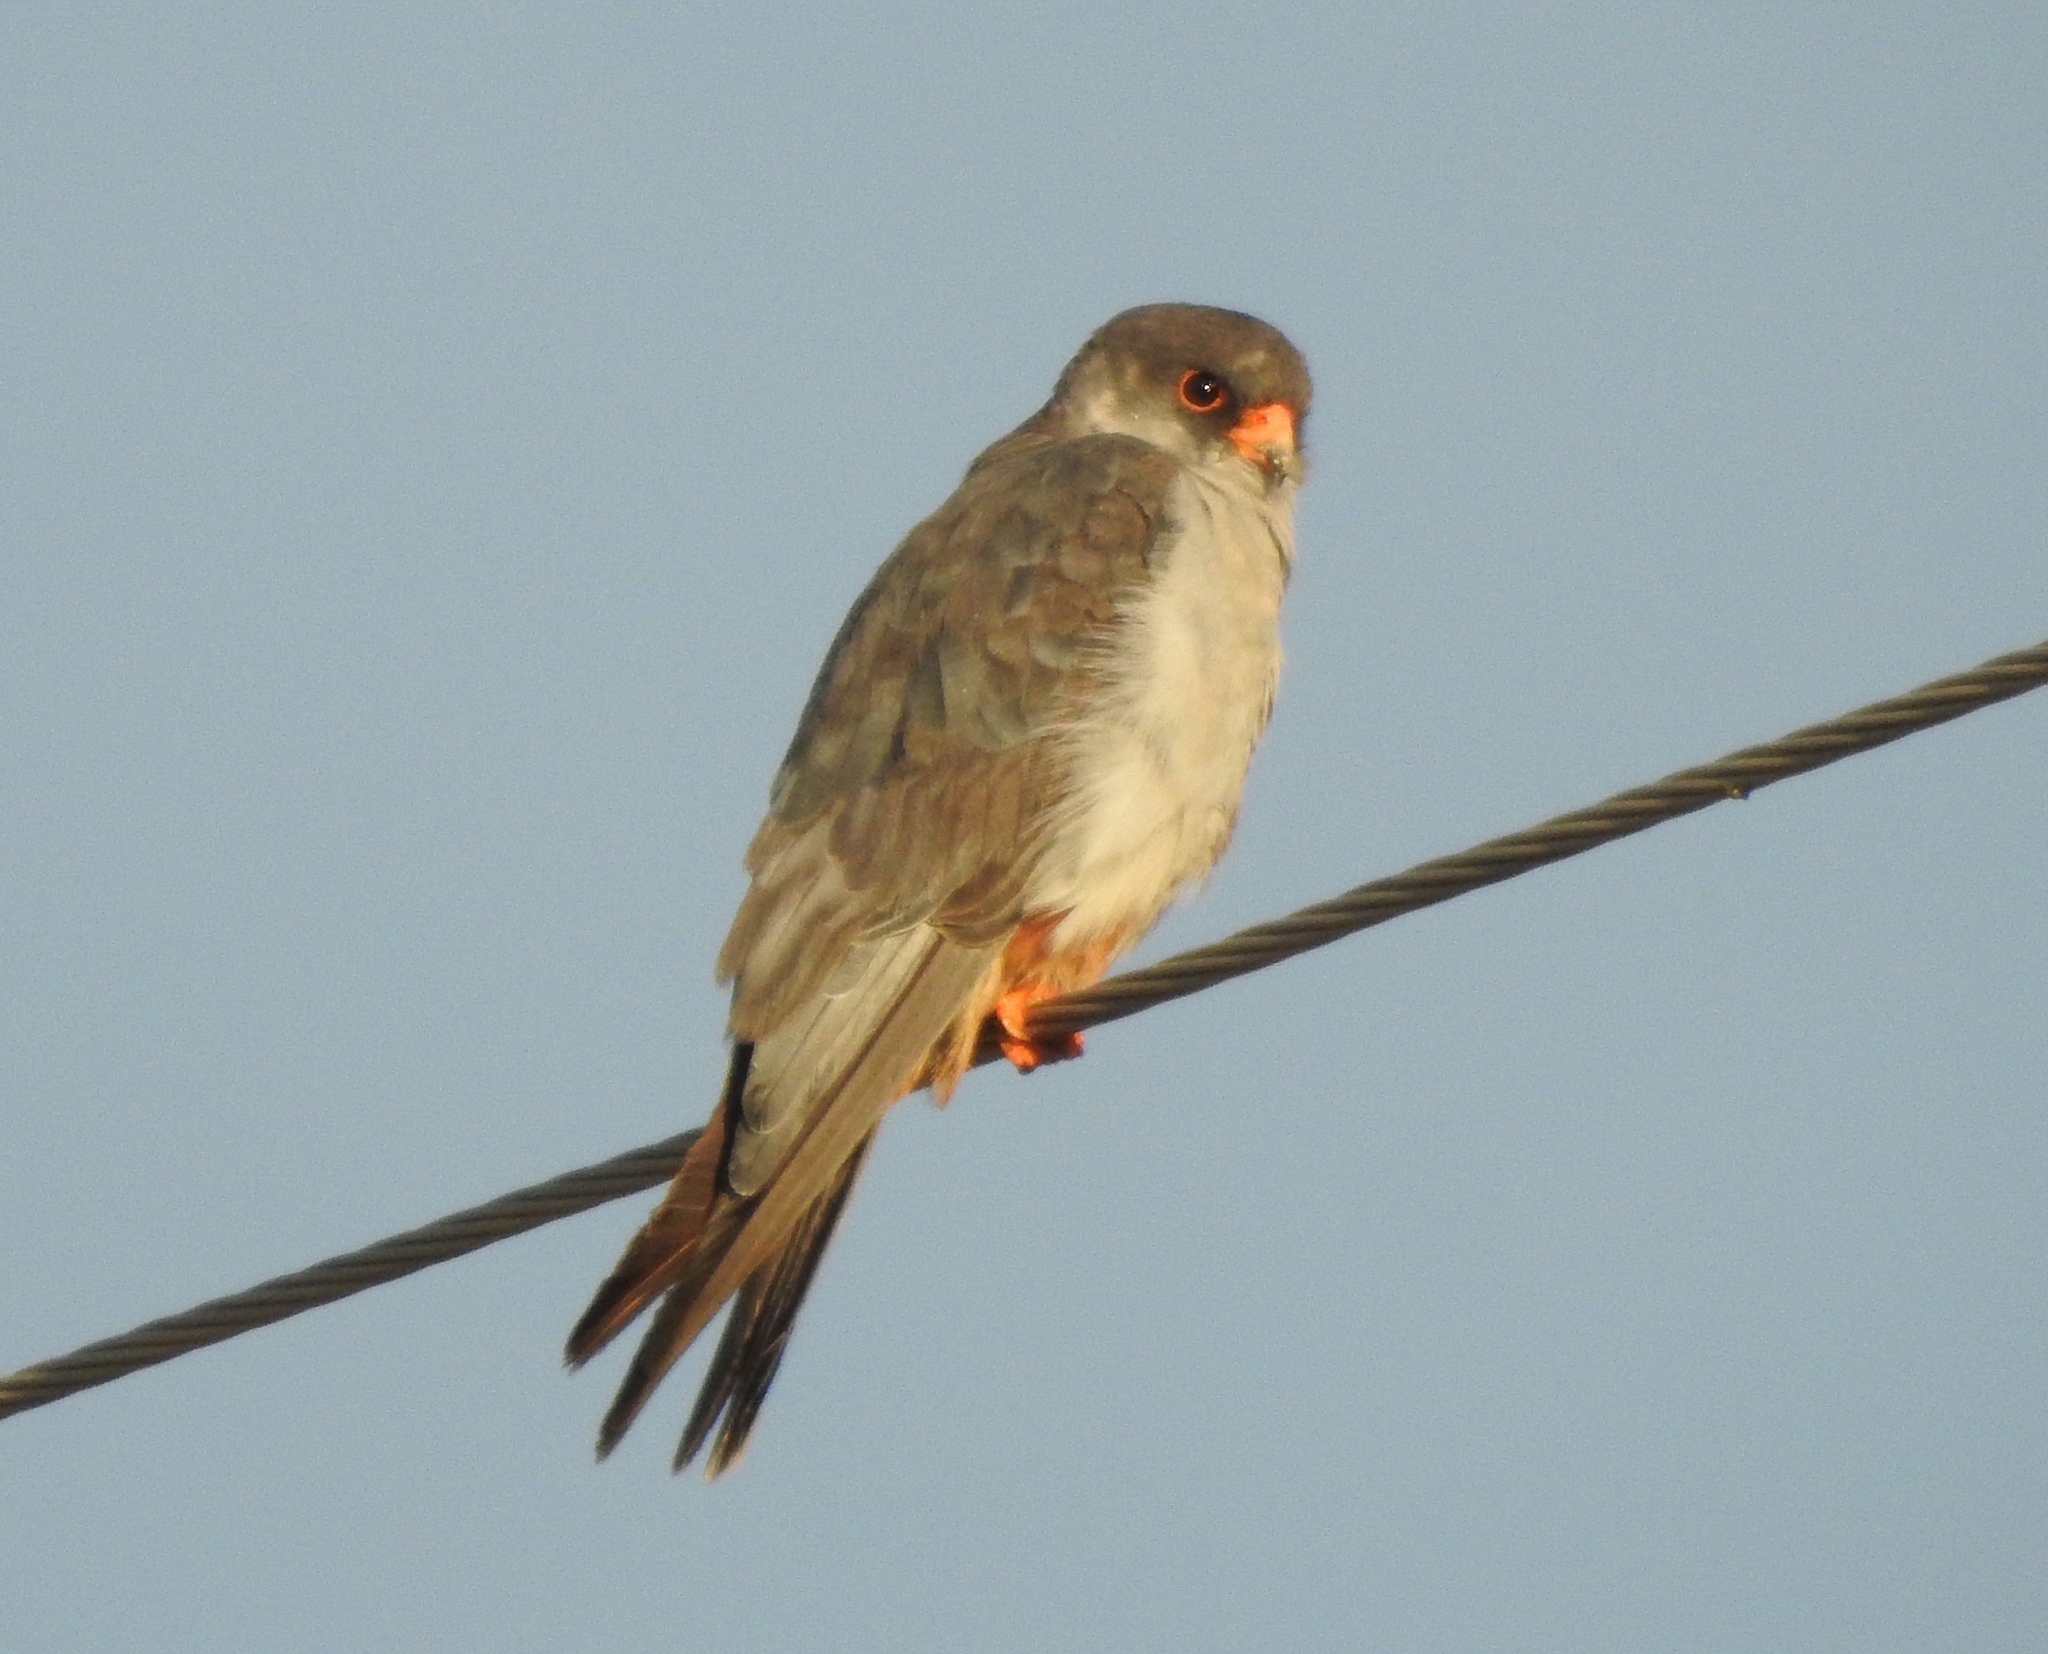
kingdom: Animalia
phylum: Chordata
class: Aves
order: Falconiformes
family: Falconidae
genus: Falco
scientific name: Falco amurensis
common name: Amur falcon
